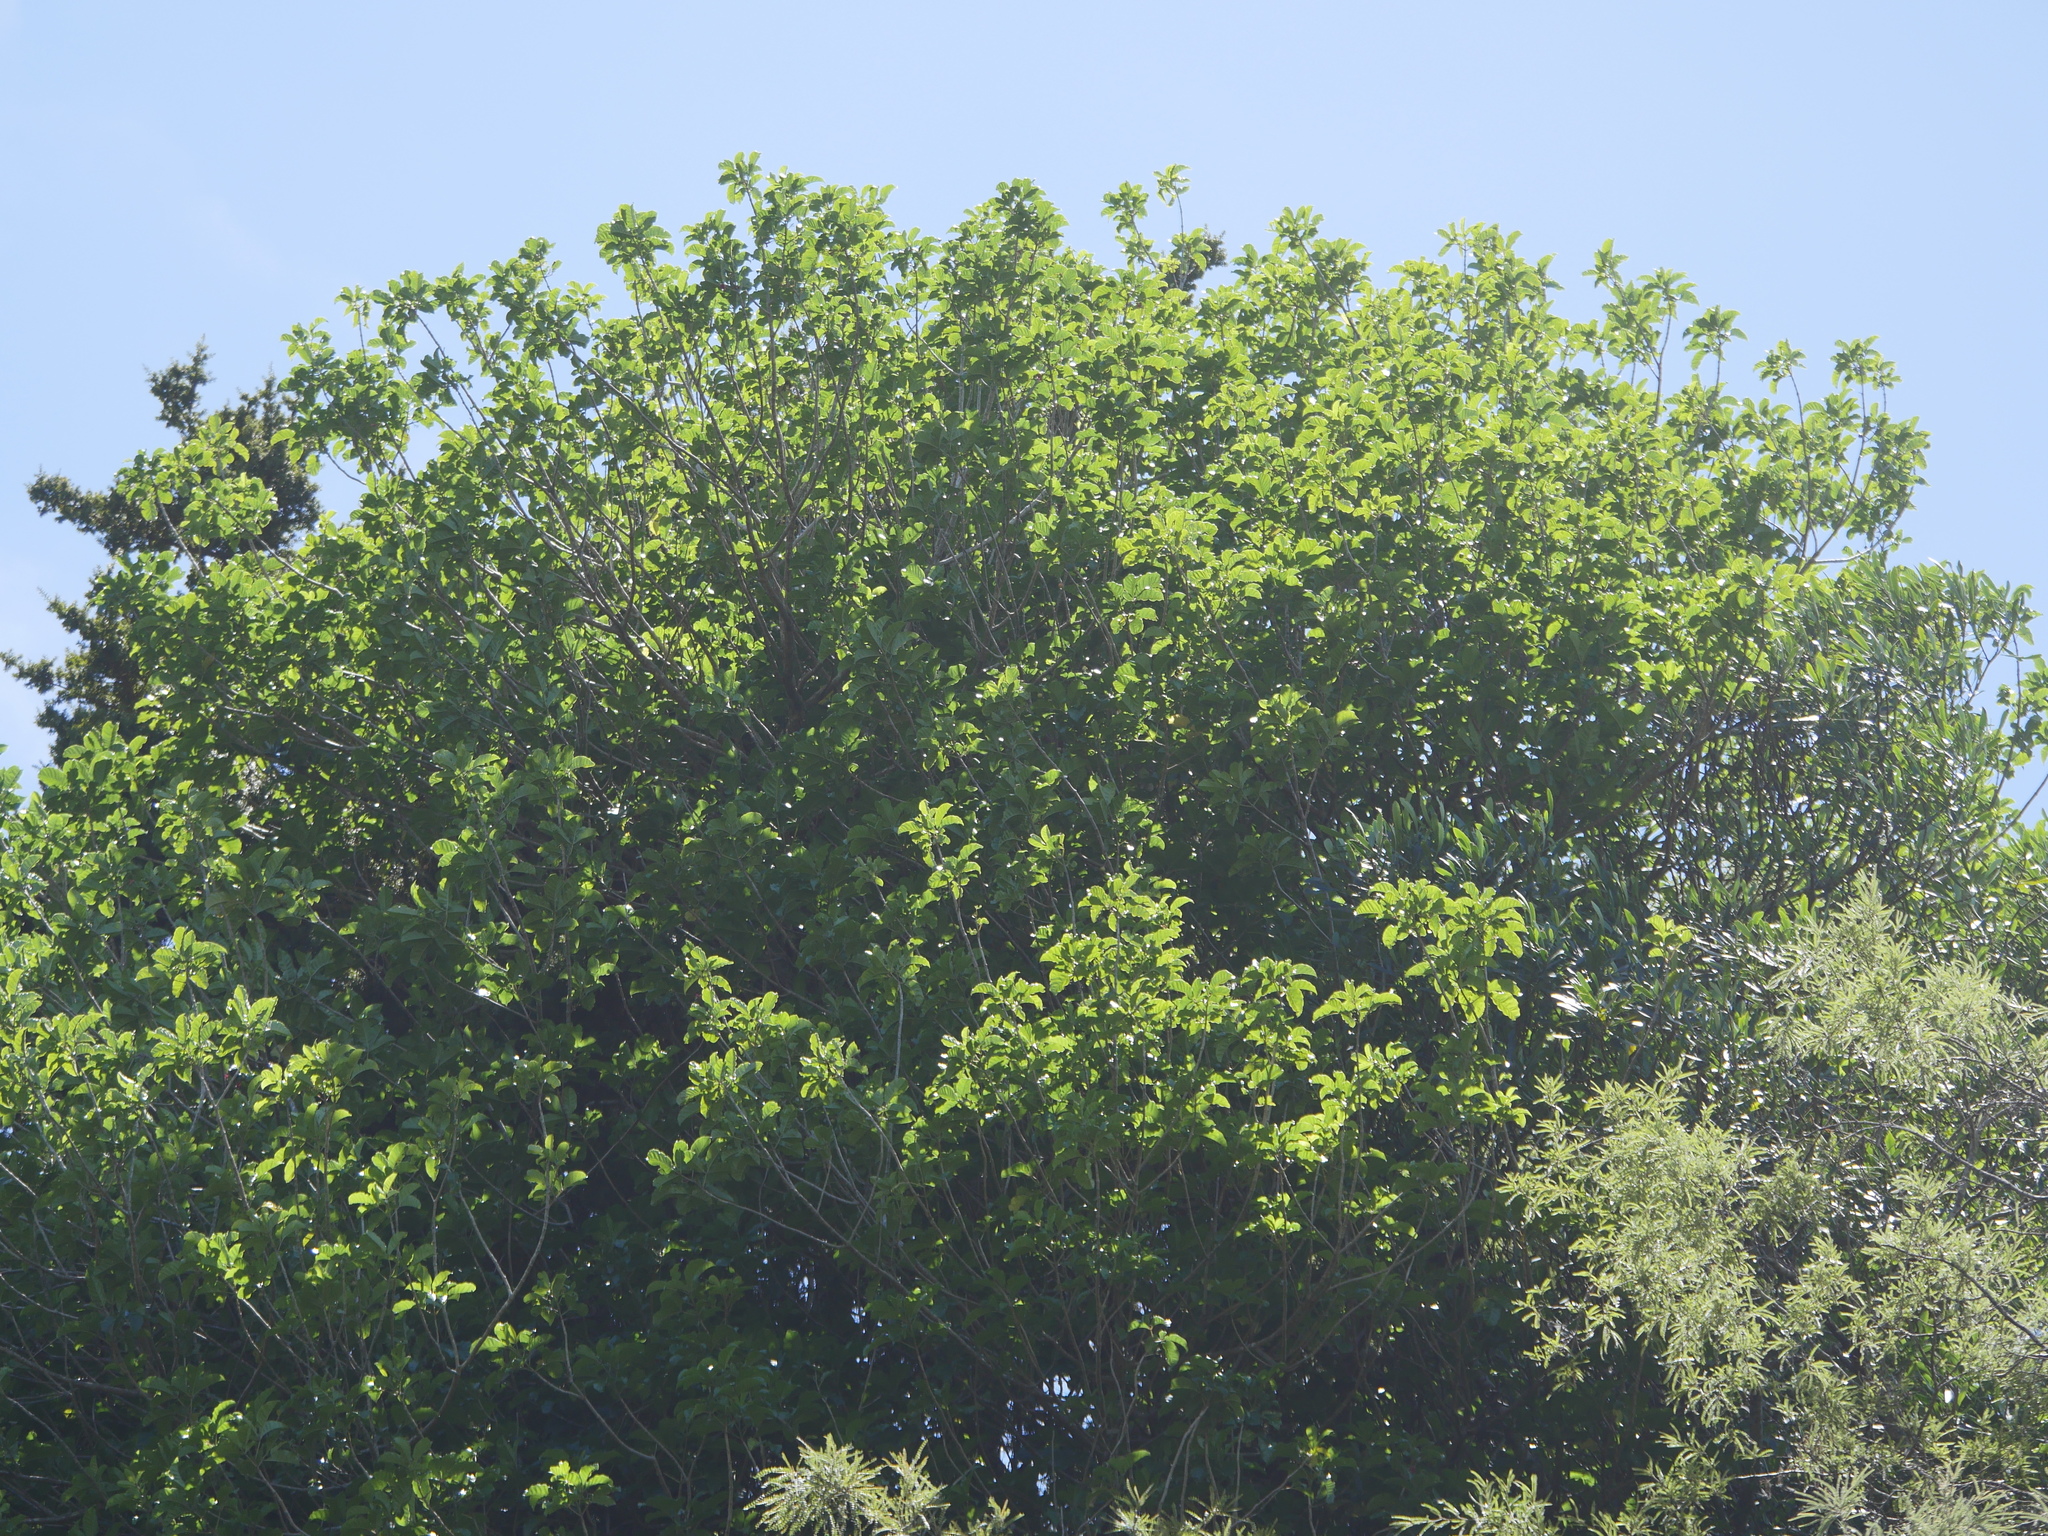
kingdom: Plantae
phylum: Tracheophyta
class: Magnoliopsida
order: Lamiales
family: Lamiaceae
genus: Vitex
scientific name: Vitex lucens
